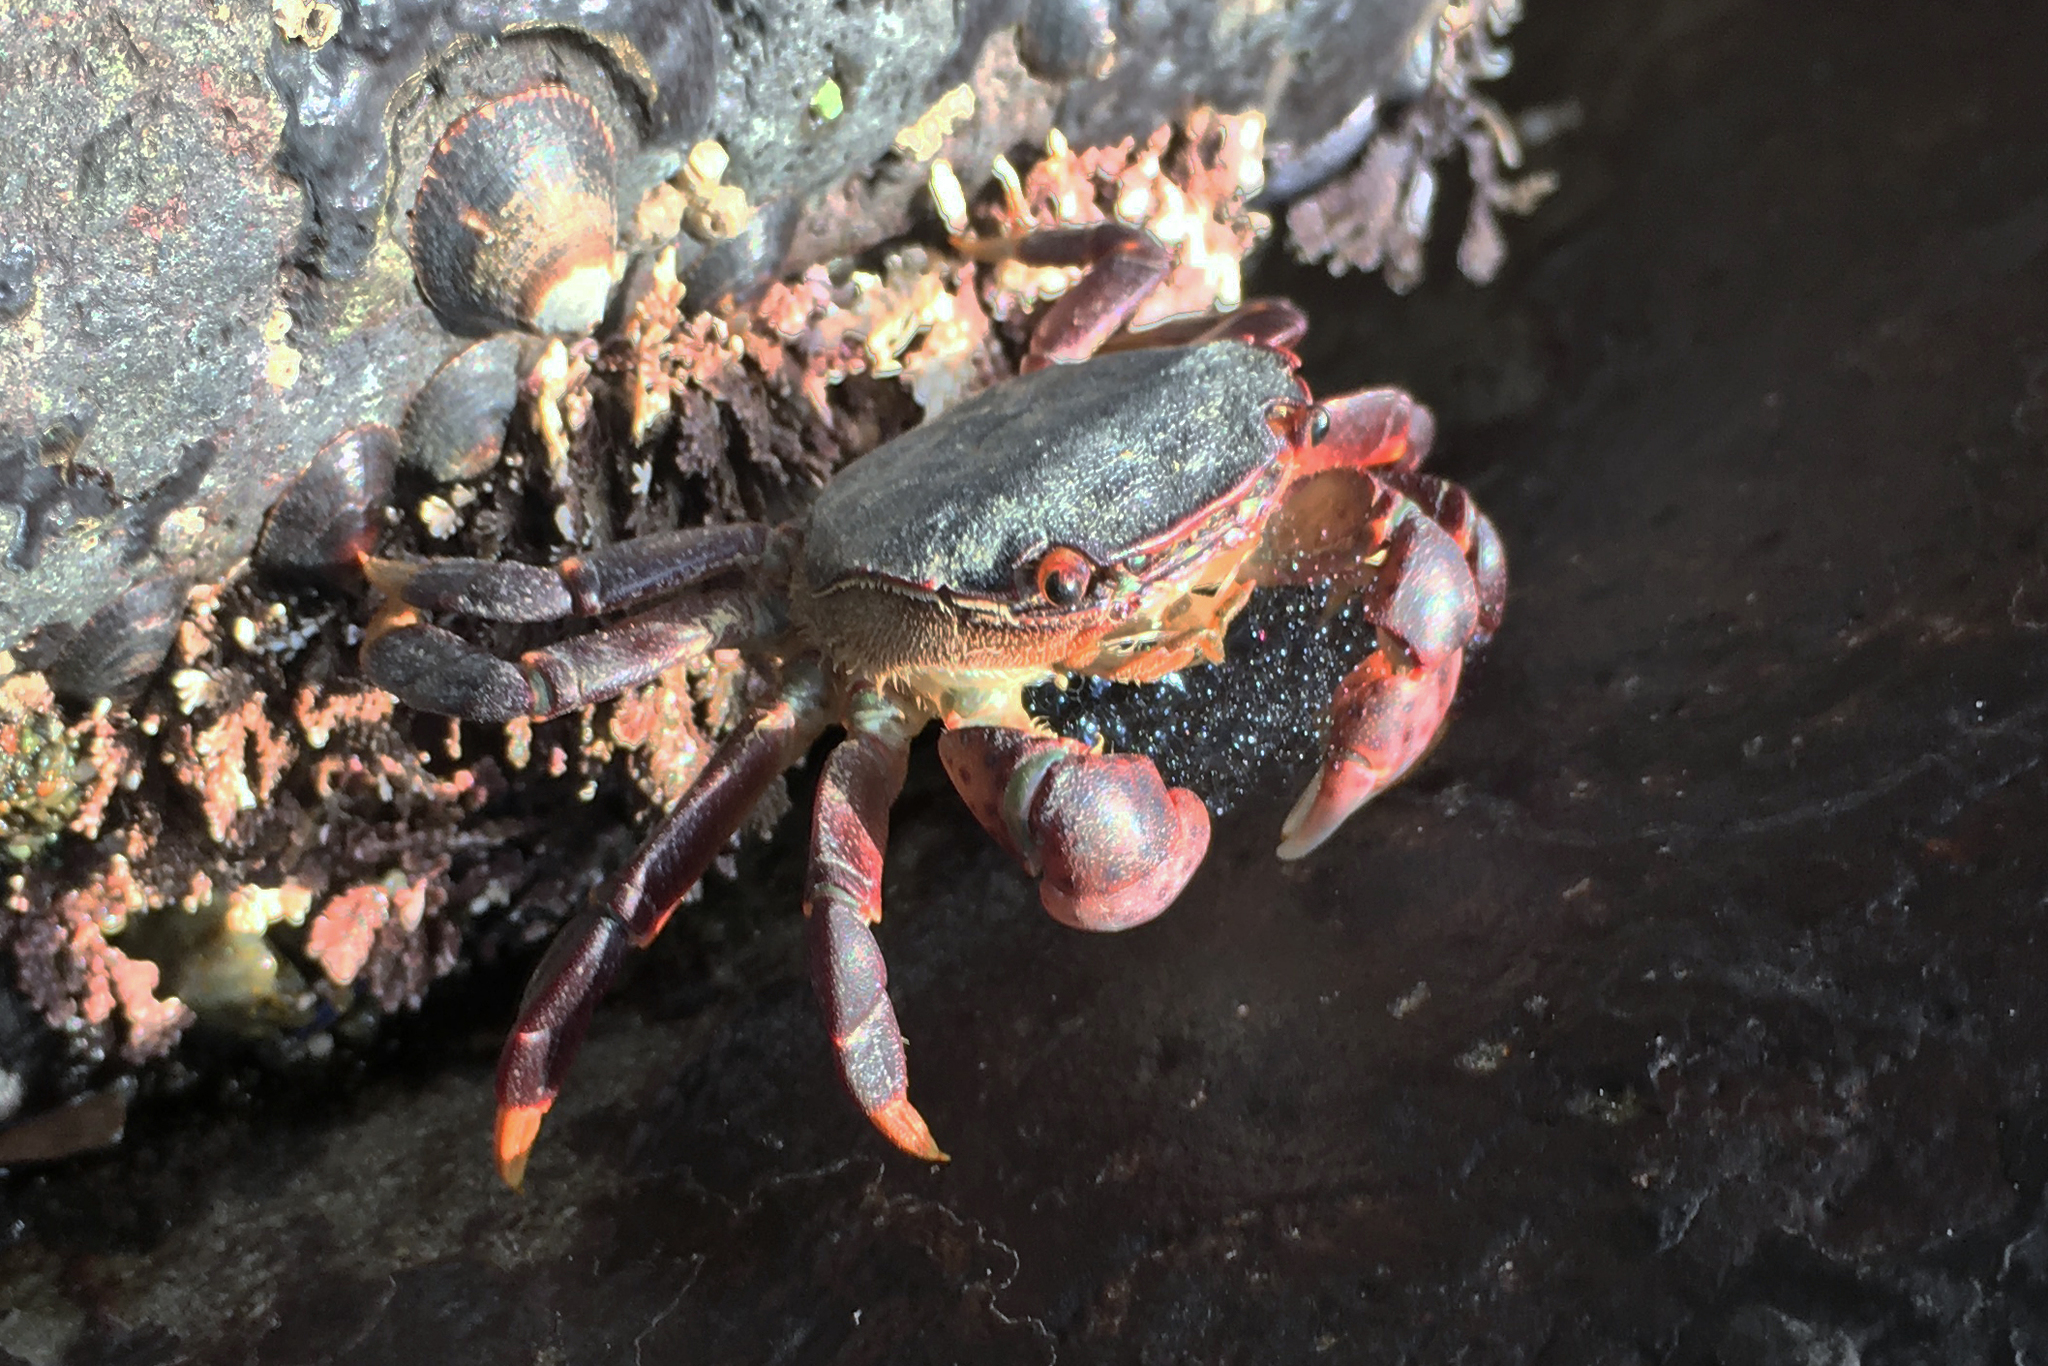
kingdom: Animalia
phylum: Arthropoda
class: Malacostraca
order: Decapoda
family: Varunidae
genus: Hemigrapsus
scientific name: Hemigrapsus nudus
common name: Purple shore crab
